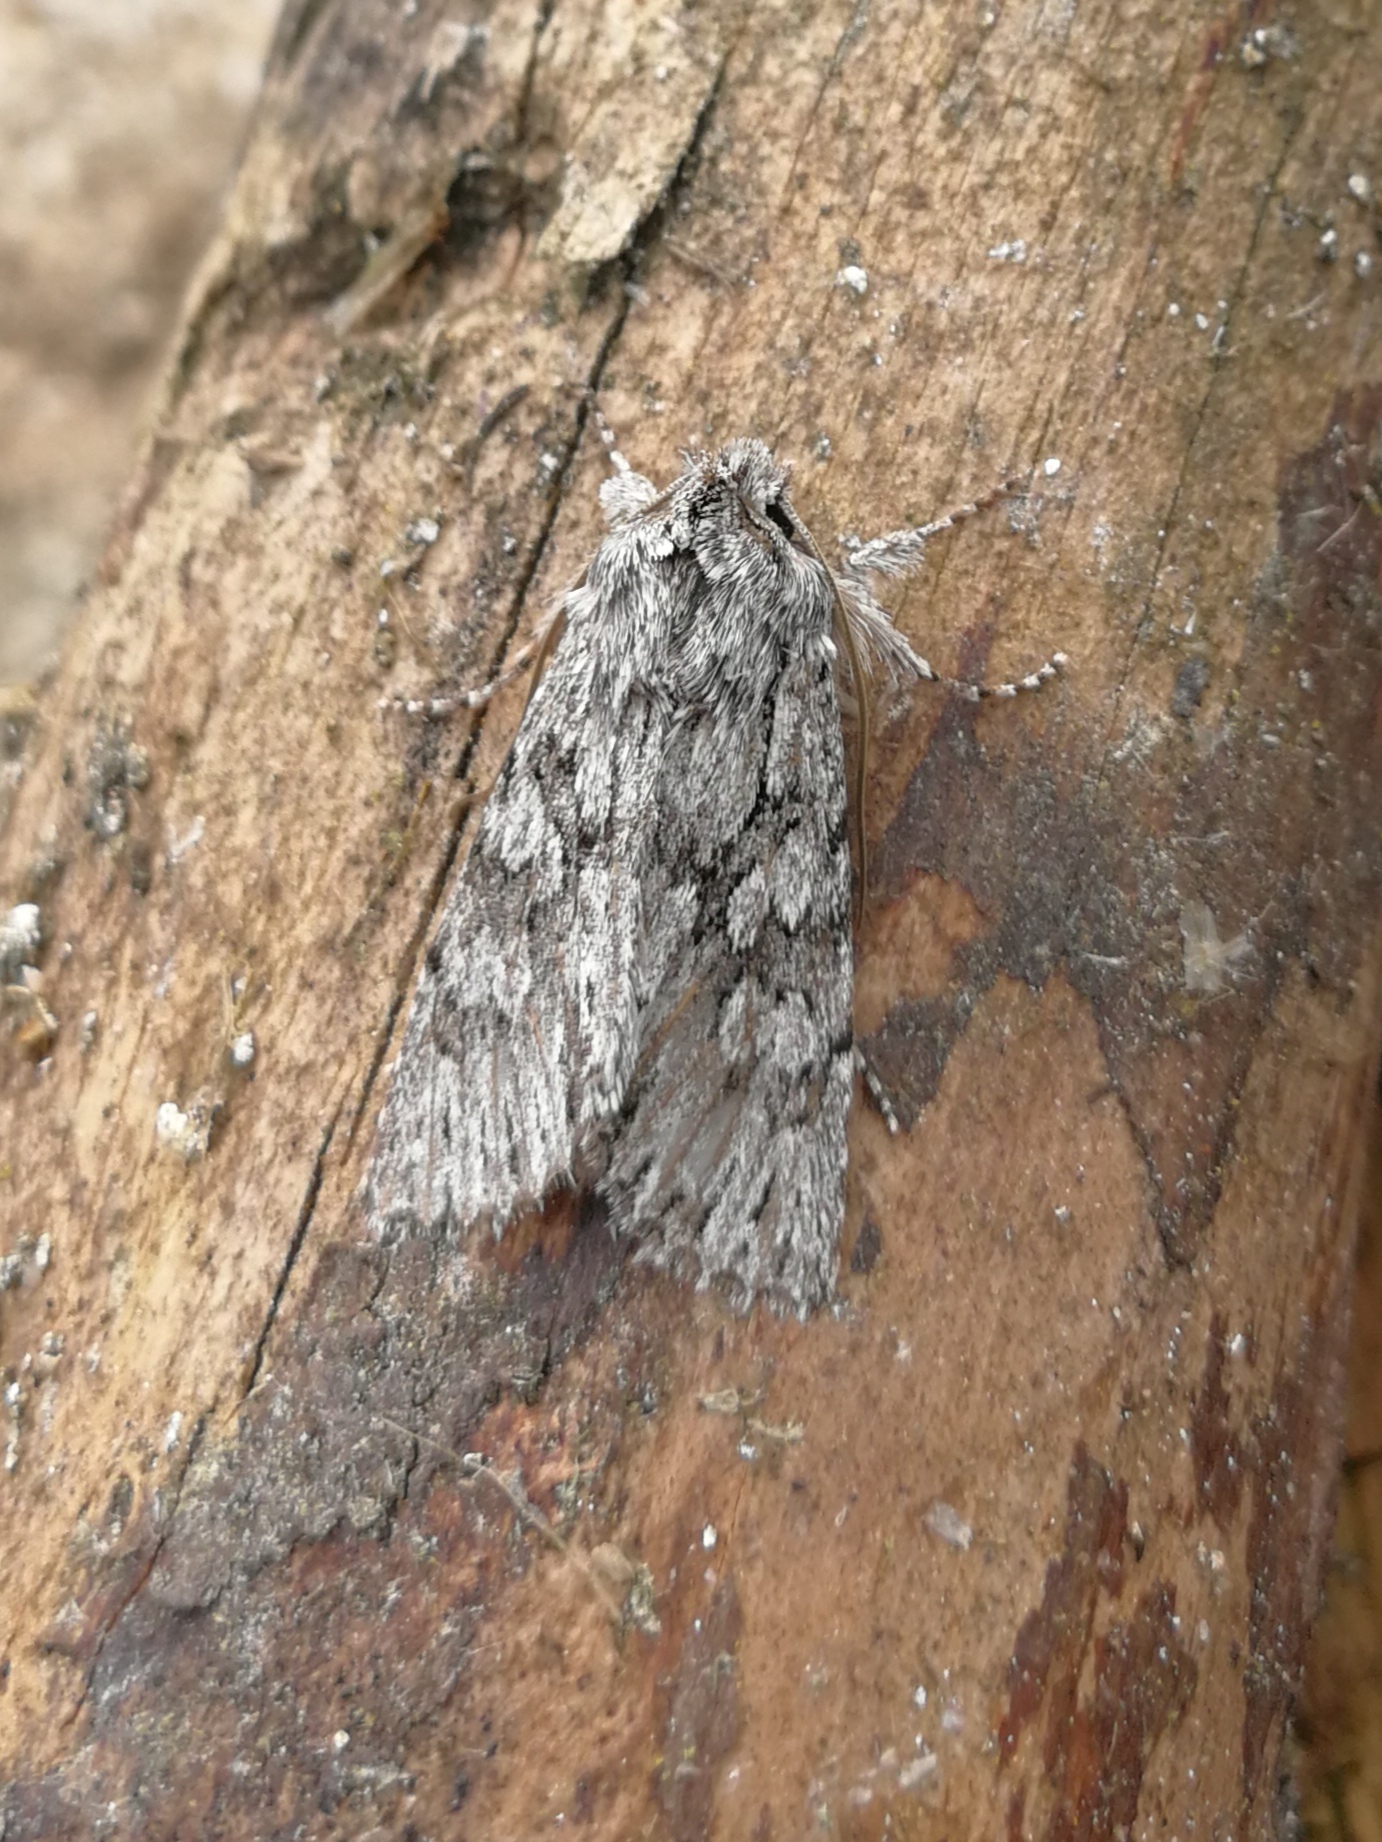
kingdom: Animalia
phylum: Arthropoda
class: Insecta
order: Lepidoptera
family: Noctuidae
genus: Xylocampa
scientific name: Xylocampa areola
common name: Early grey
